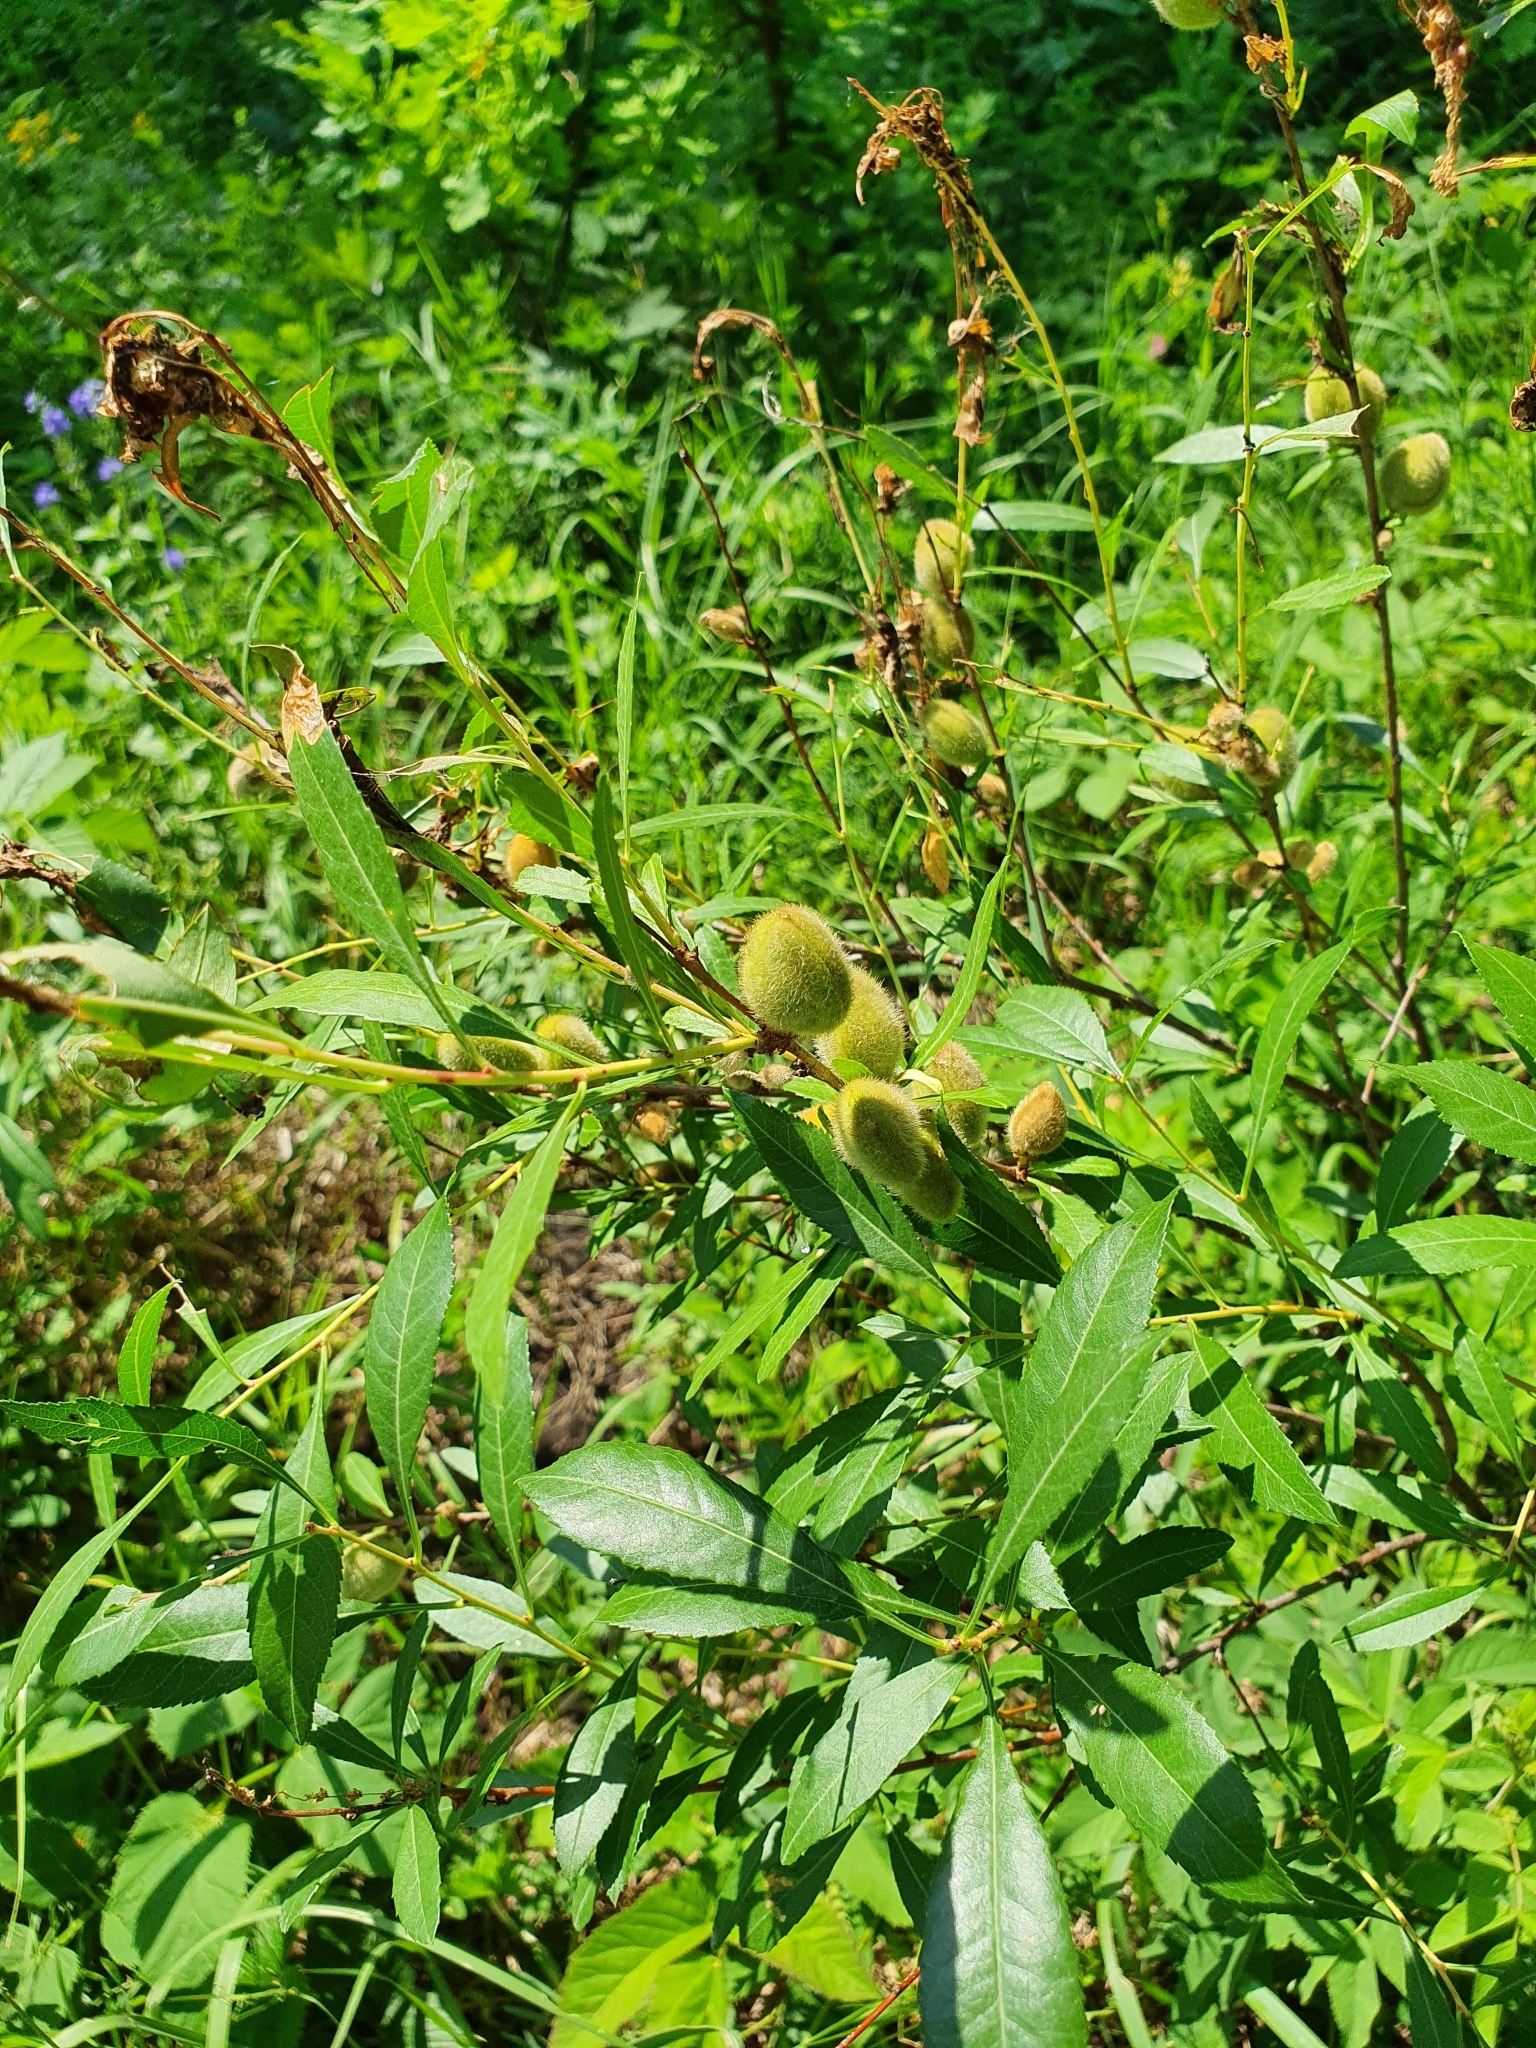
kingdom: Plantae
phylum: Tracheophyta
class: Magnoliopsida
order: Rosales
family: Rosaceae
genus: Prunus
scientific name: Prunus tenella
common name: Dwarf russian almond
